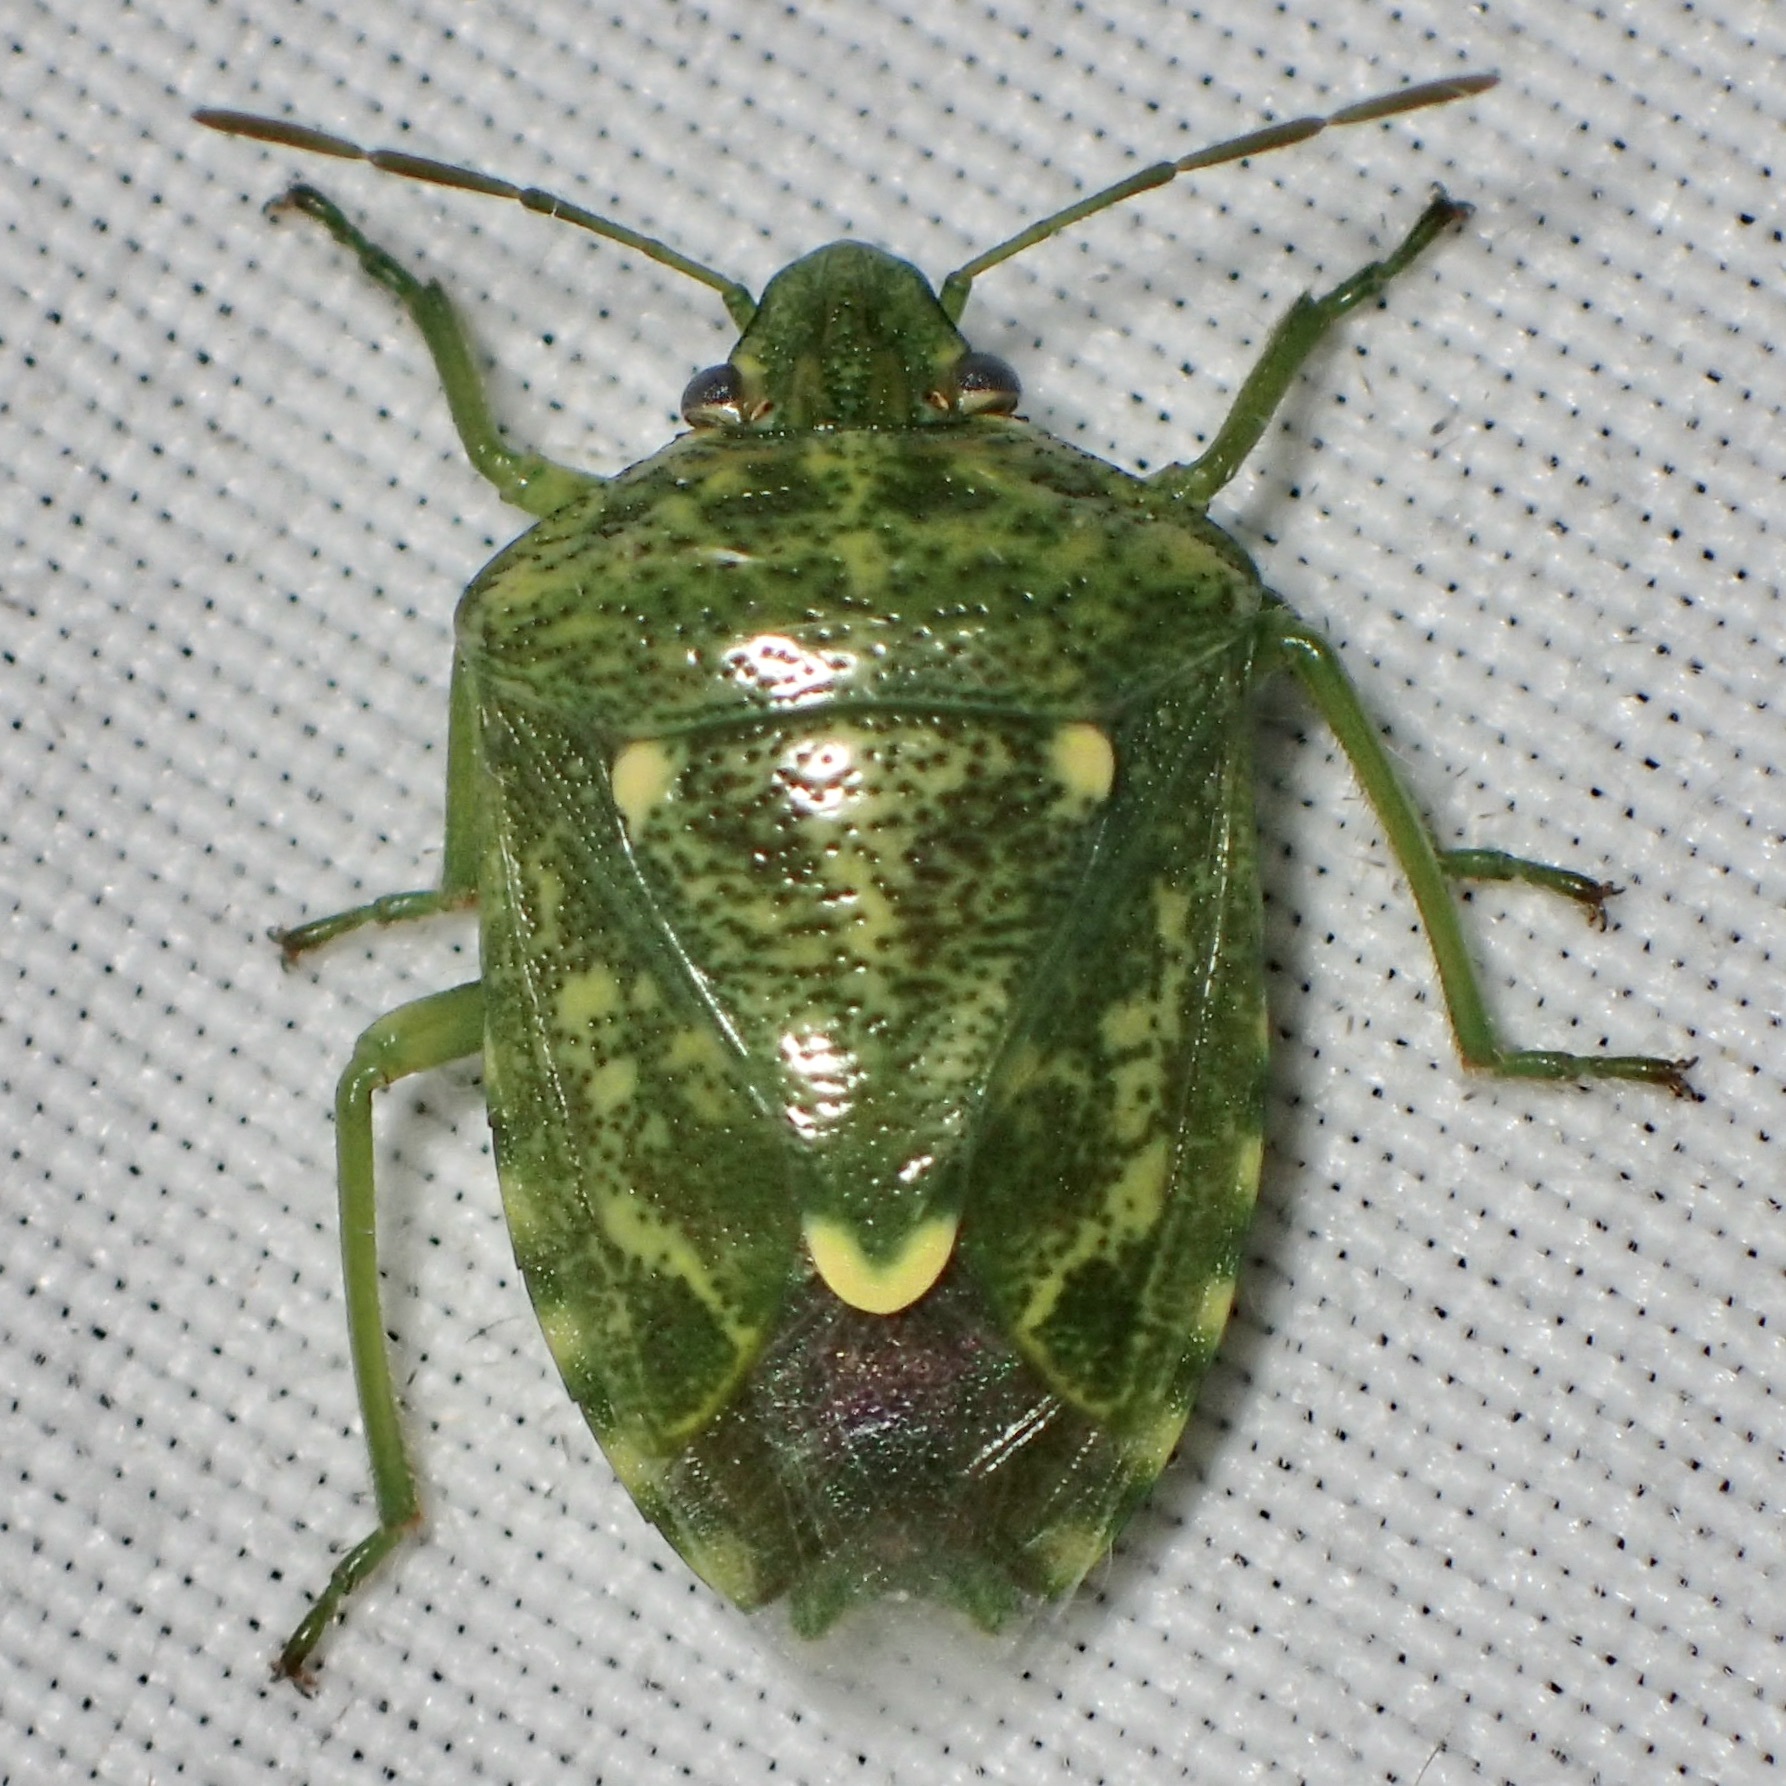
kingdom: Animalia
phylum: Arthropoda
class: Insecta
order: Hemiptera
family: Pentatomidae
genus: Banasa
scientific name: Banasa euchlora
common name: Cedar berry bug
